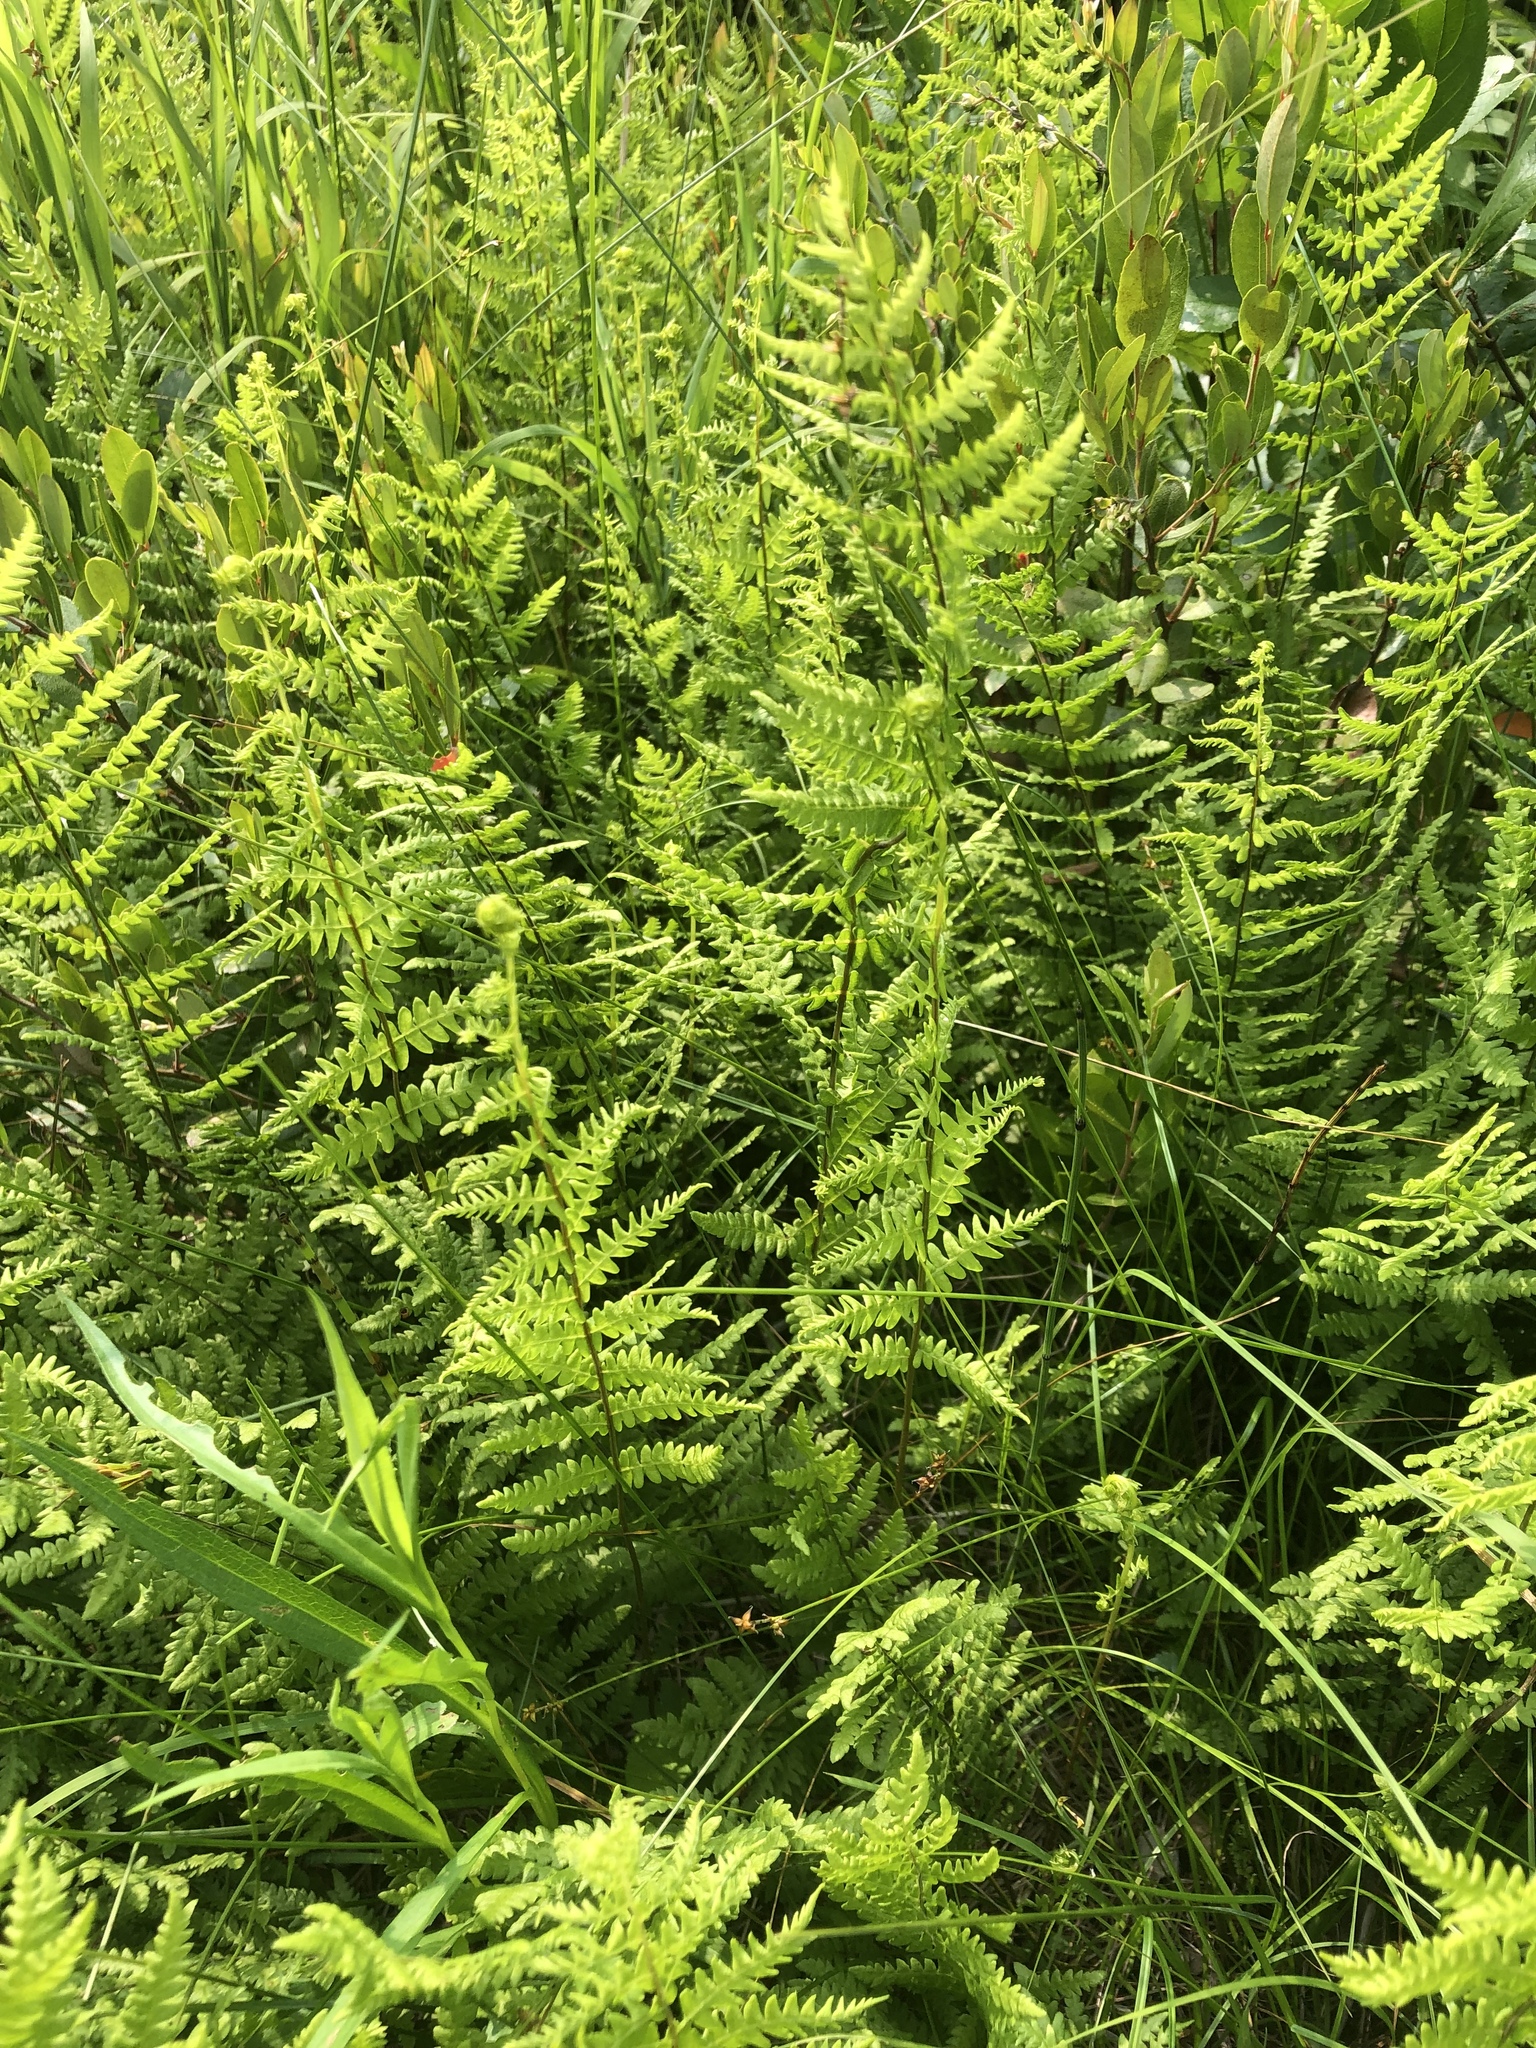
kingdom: Plantae
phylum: Tracheophyta
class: Polypodiopsida
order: Polypodiales
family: Thelypteridaceae
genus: Thelypteris
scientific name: Thelypteris palustris
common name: Marsh fern
